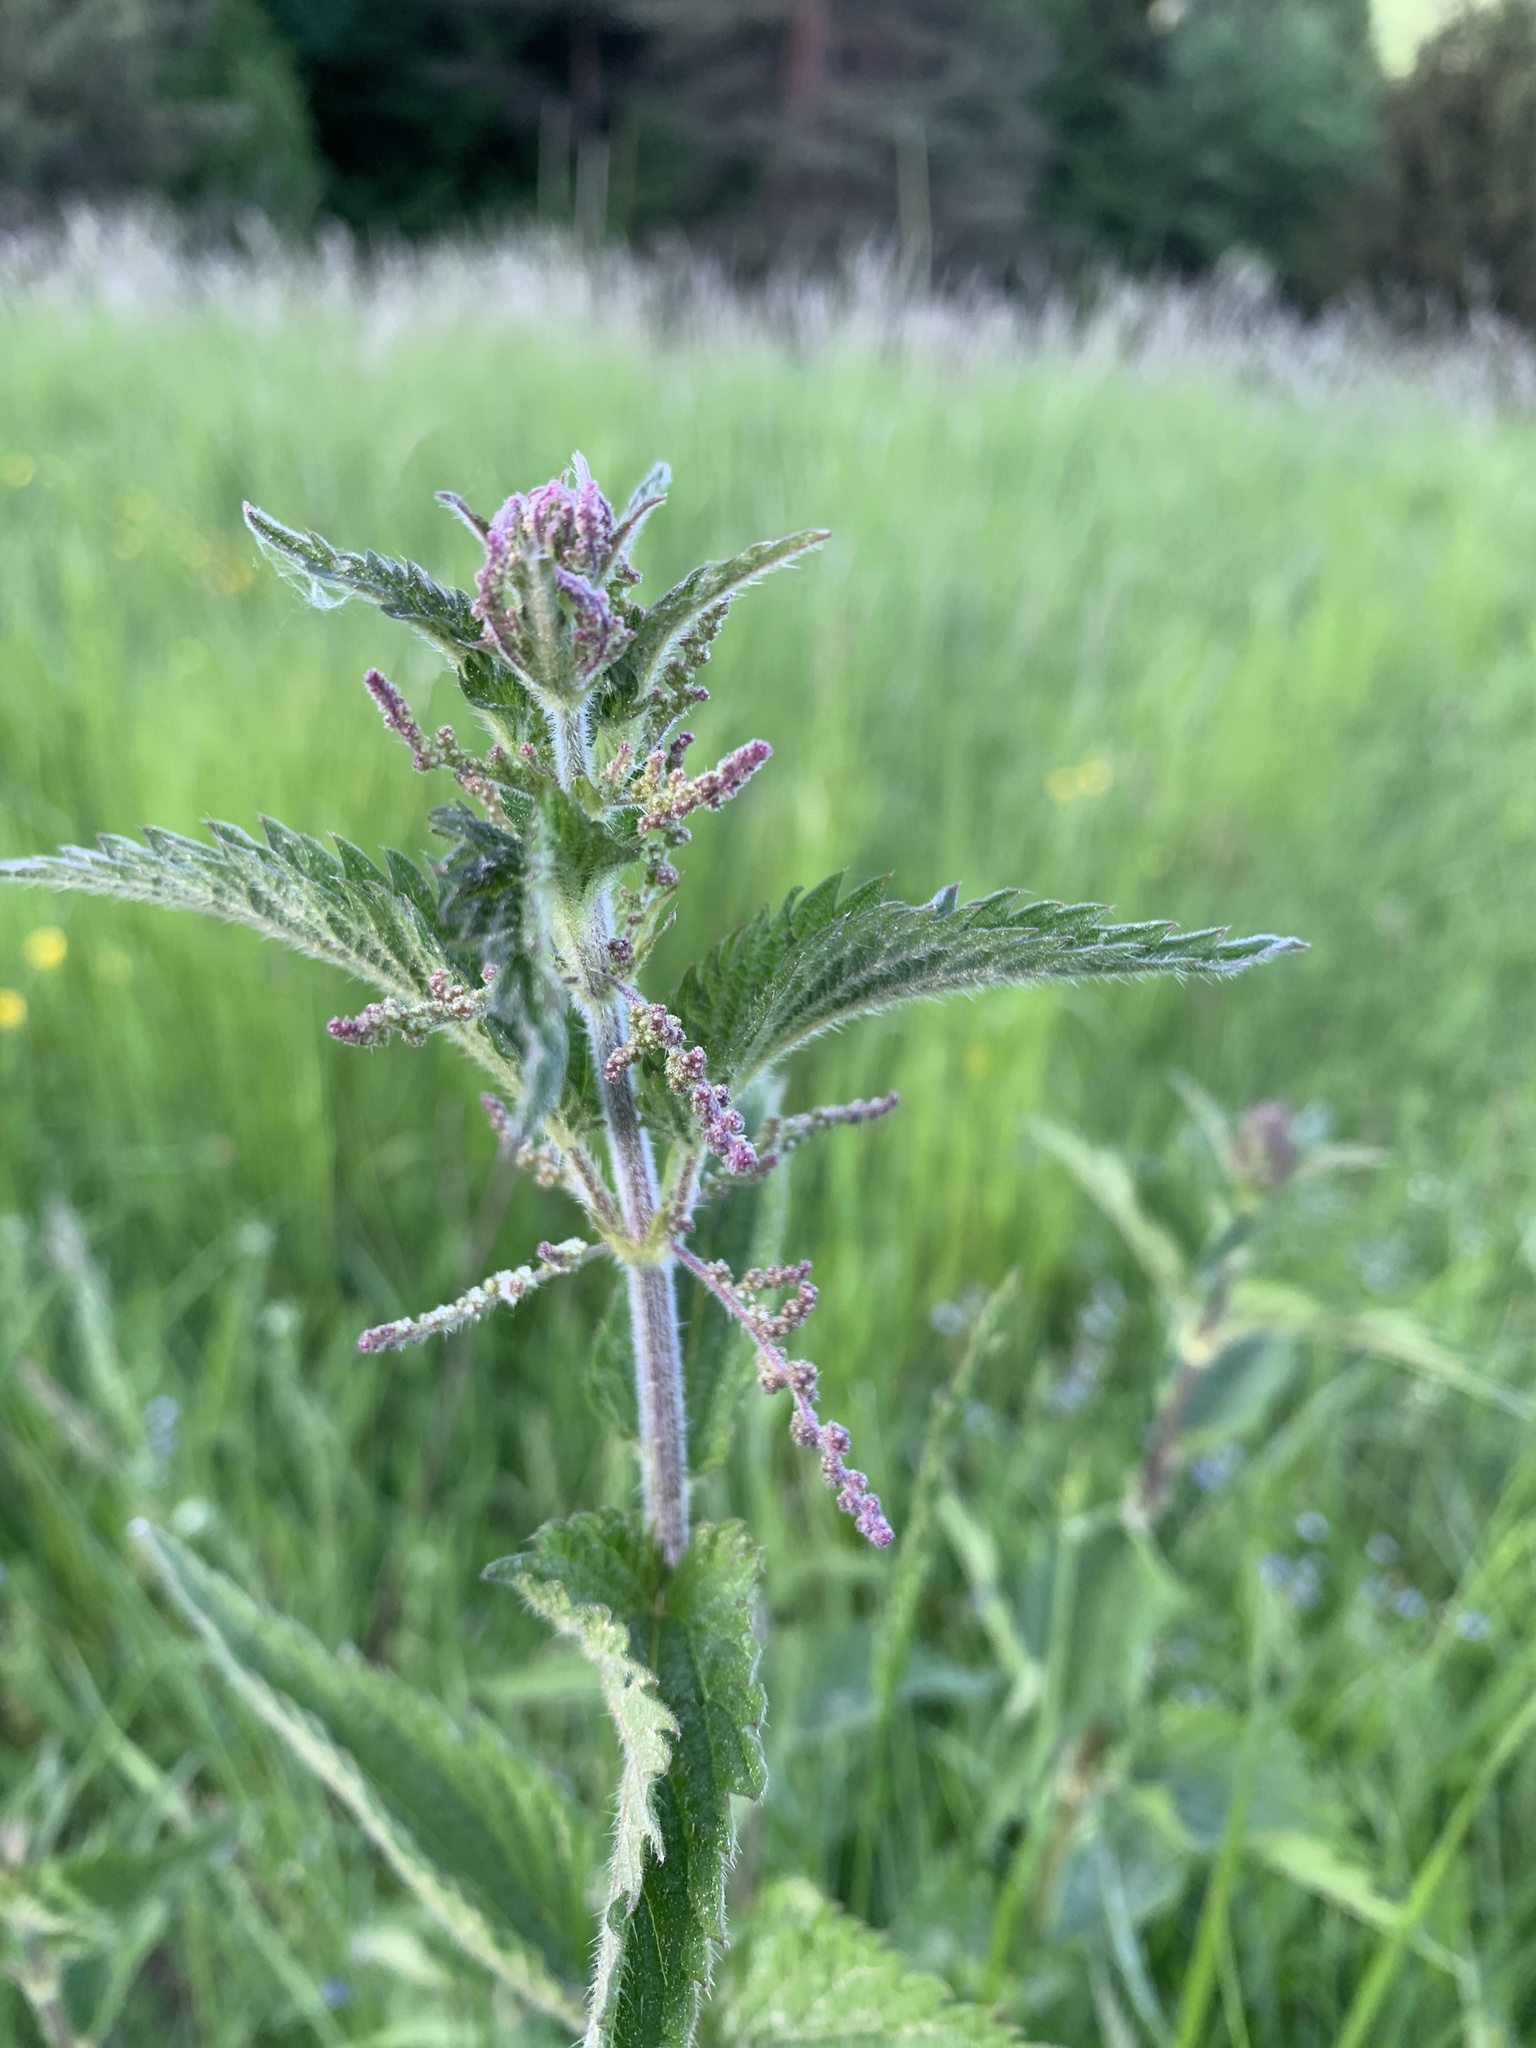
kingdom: Plantae
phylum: Tracheophyta
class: Magnoliopsida
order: Rosales
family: Urticaceae
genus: Urtica
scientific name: Urtica dioica
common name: Common nettle
